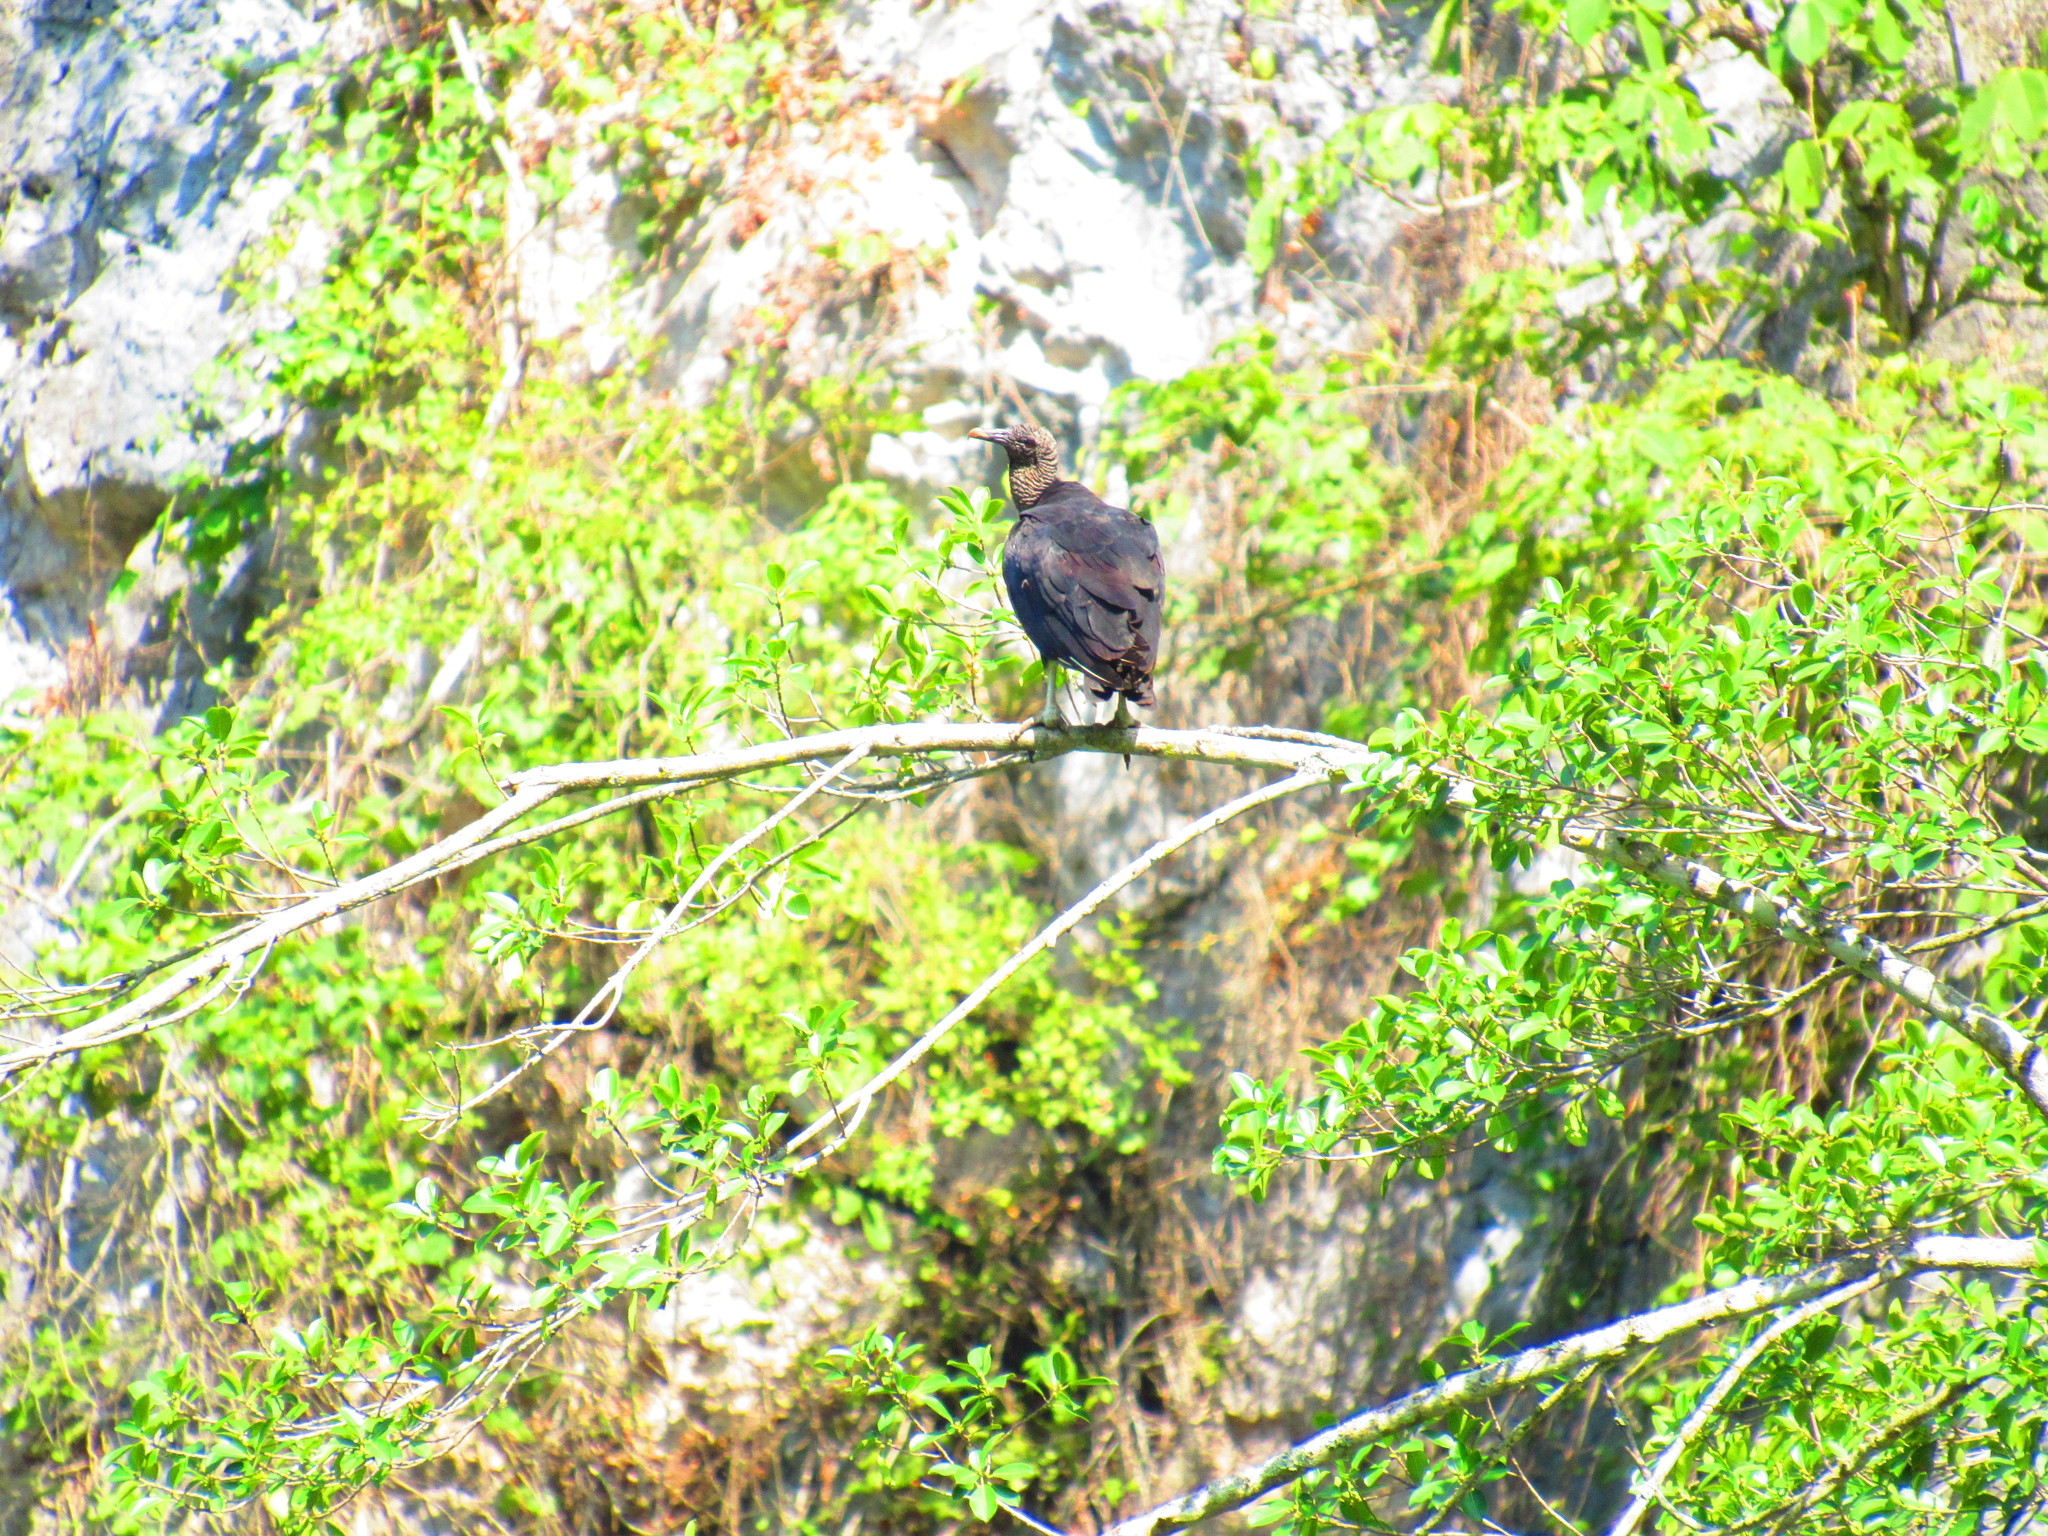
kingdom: Animalia
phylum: Chordata
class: Aves
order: Accipitriformes
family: Cathartidae
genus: Coragyps
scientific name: Coragyps atratus
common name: Black vulture
